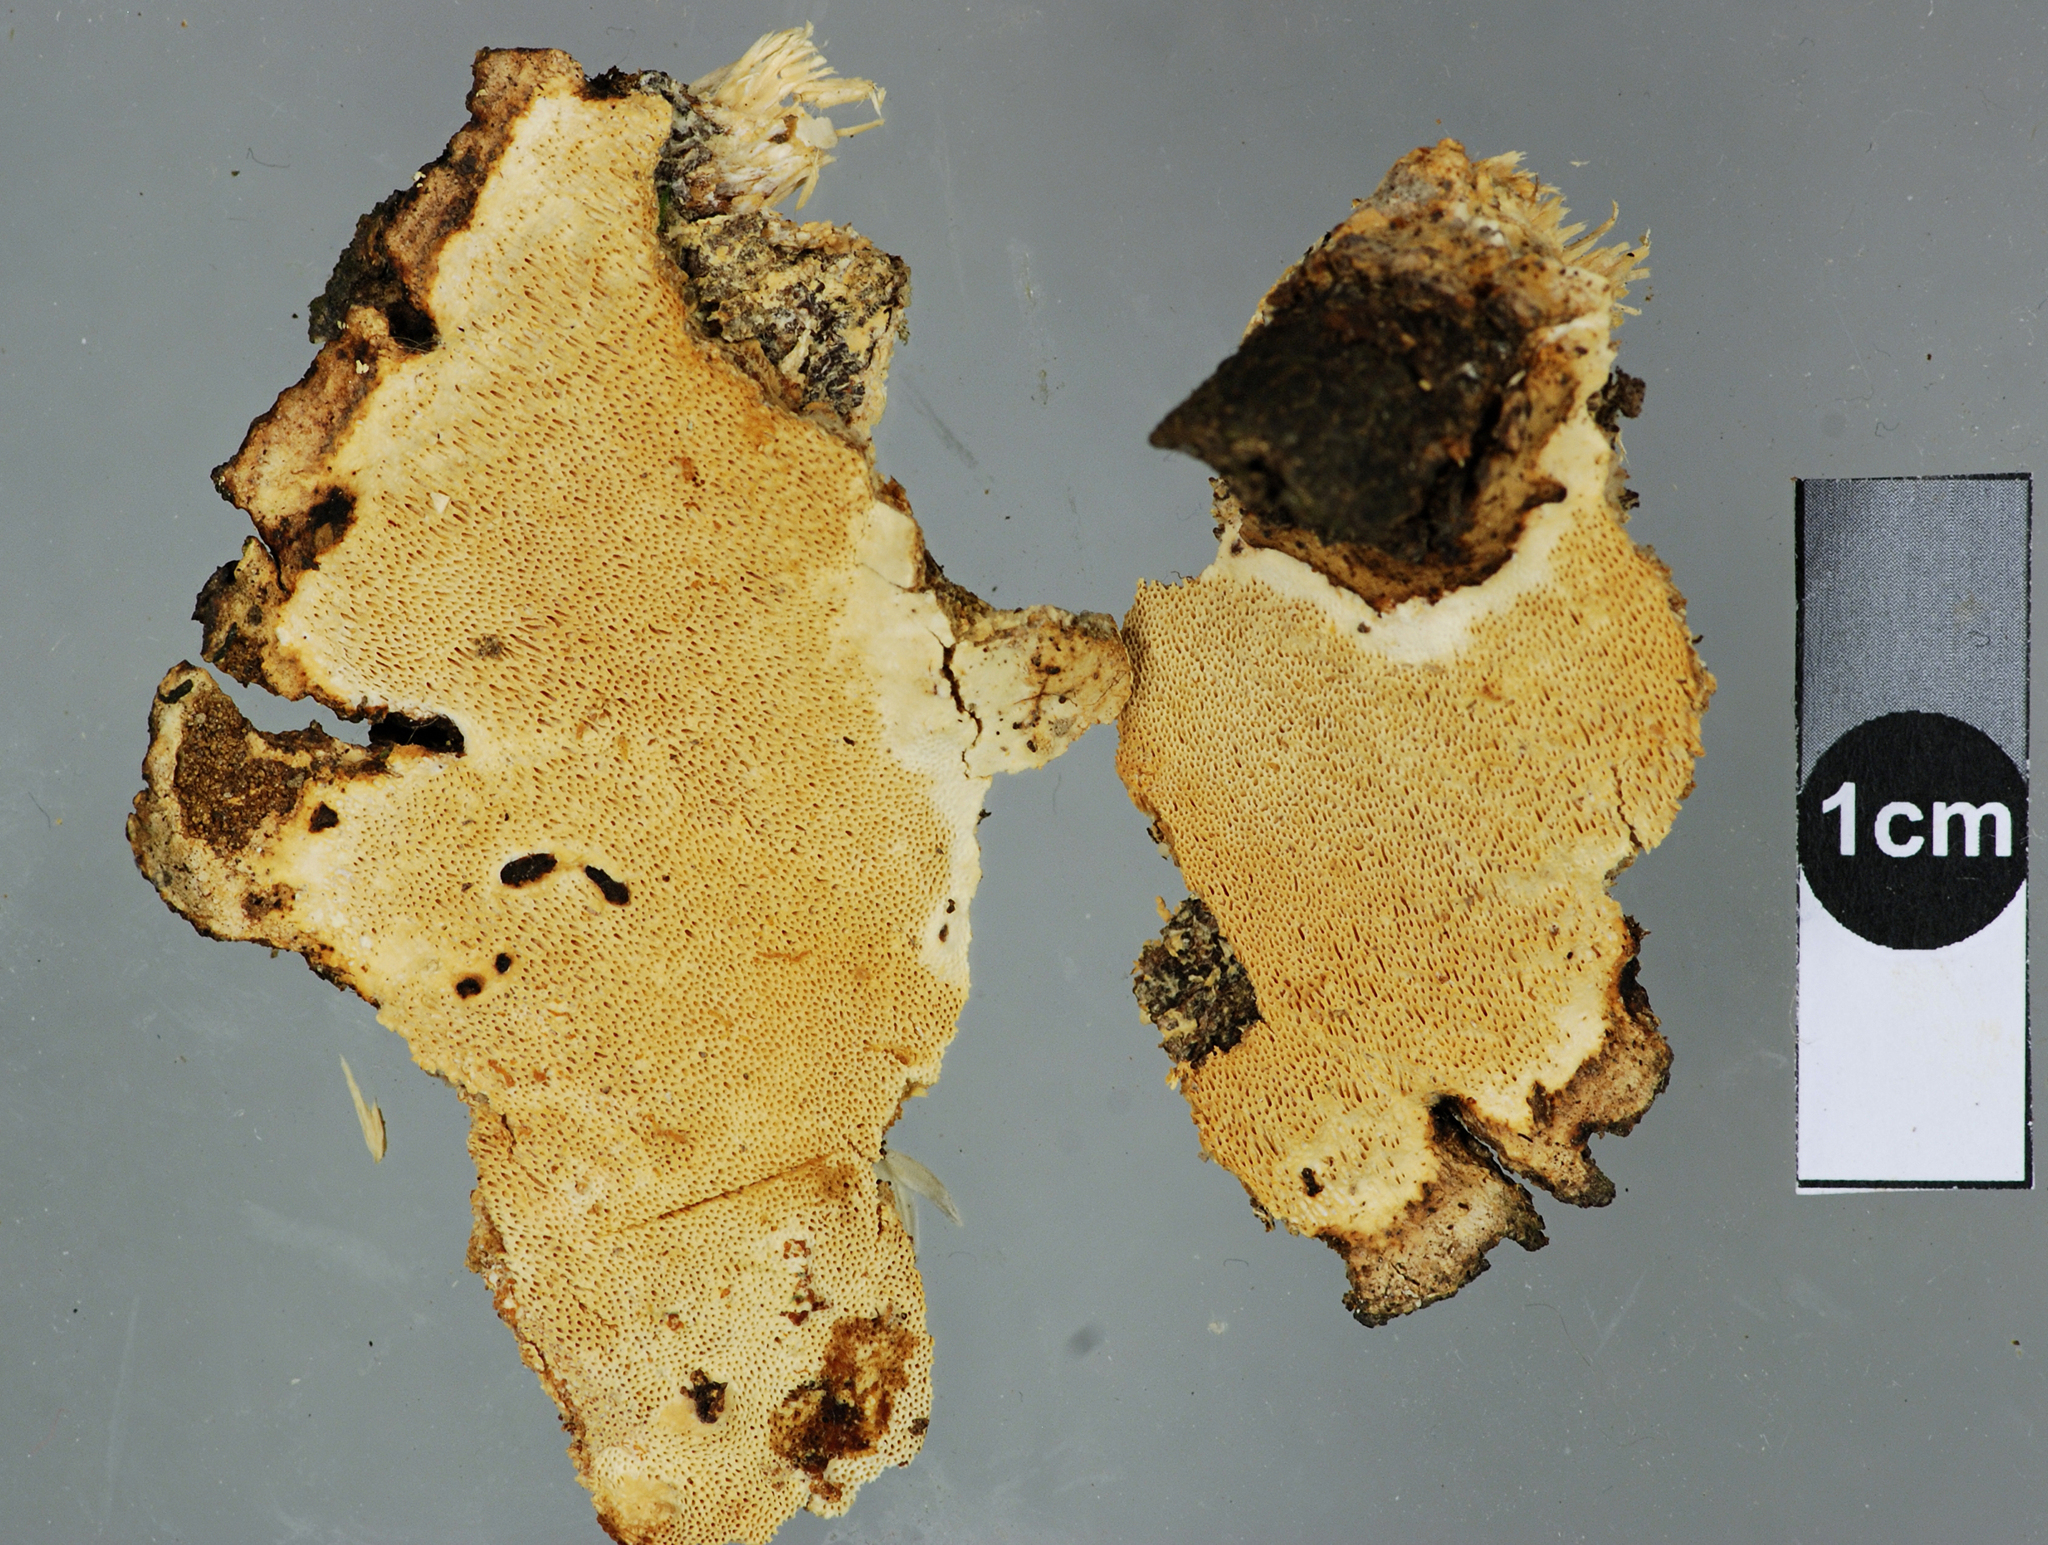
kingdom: Fungi
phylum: Basidiomycota
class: Agaricomycetes
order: Polyporales
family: Polyporaceae
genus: Haploporus
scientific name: Haploporus pirongia
